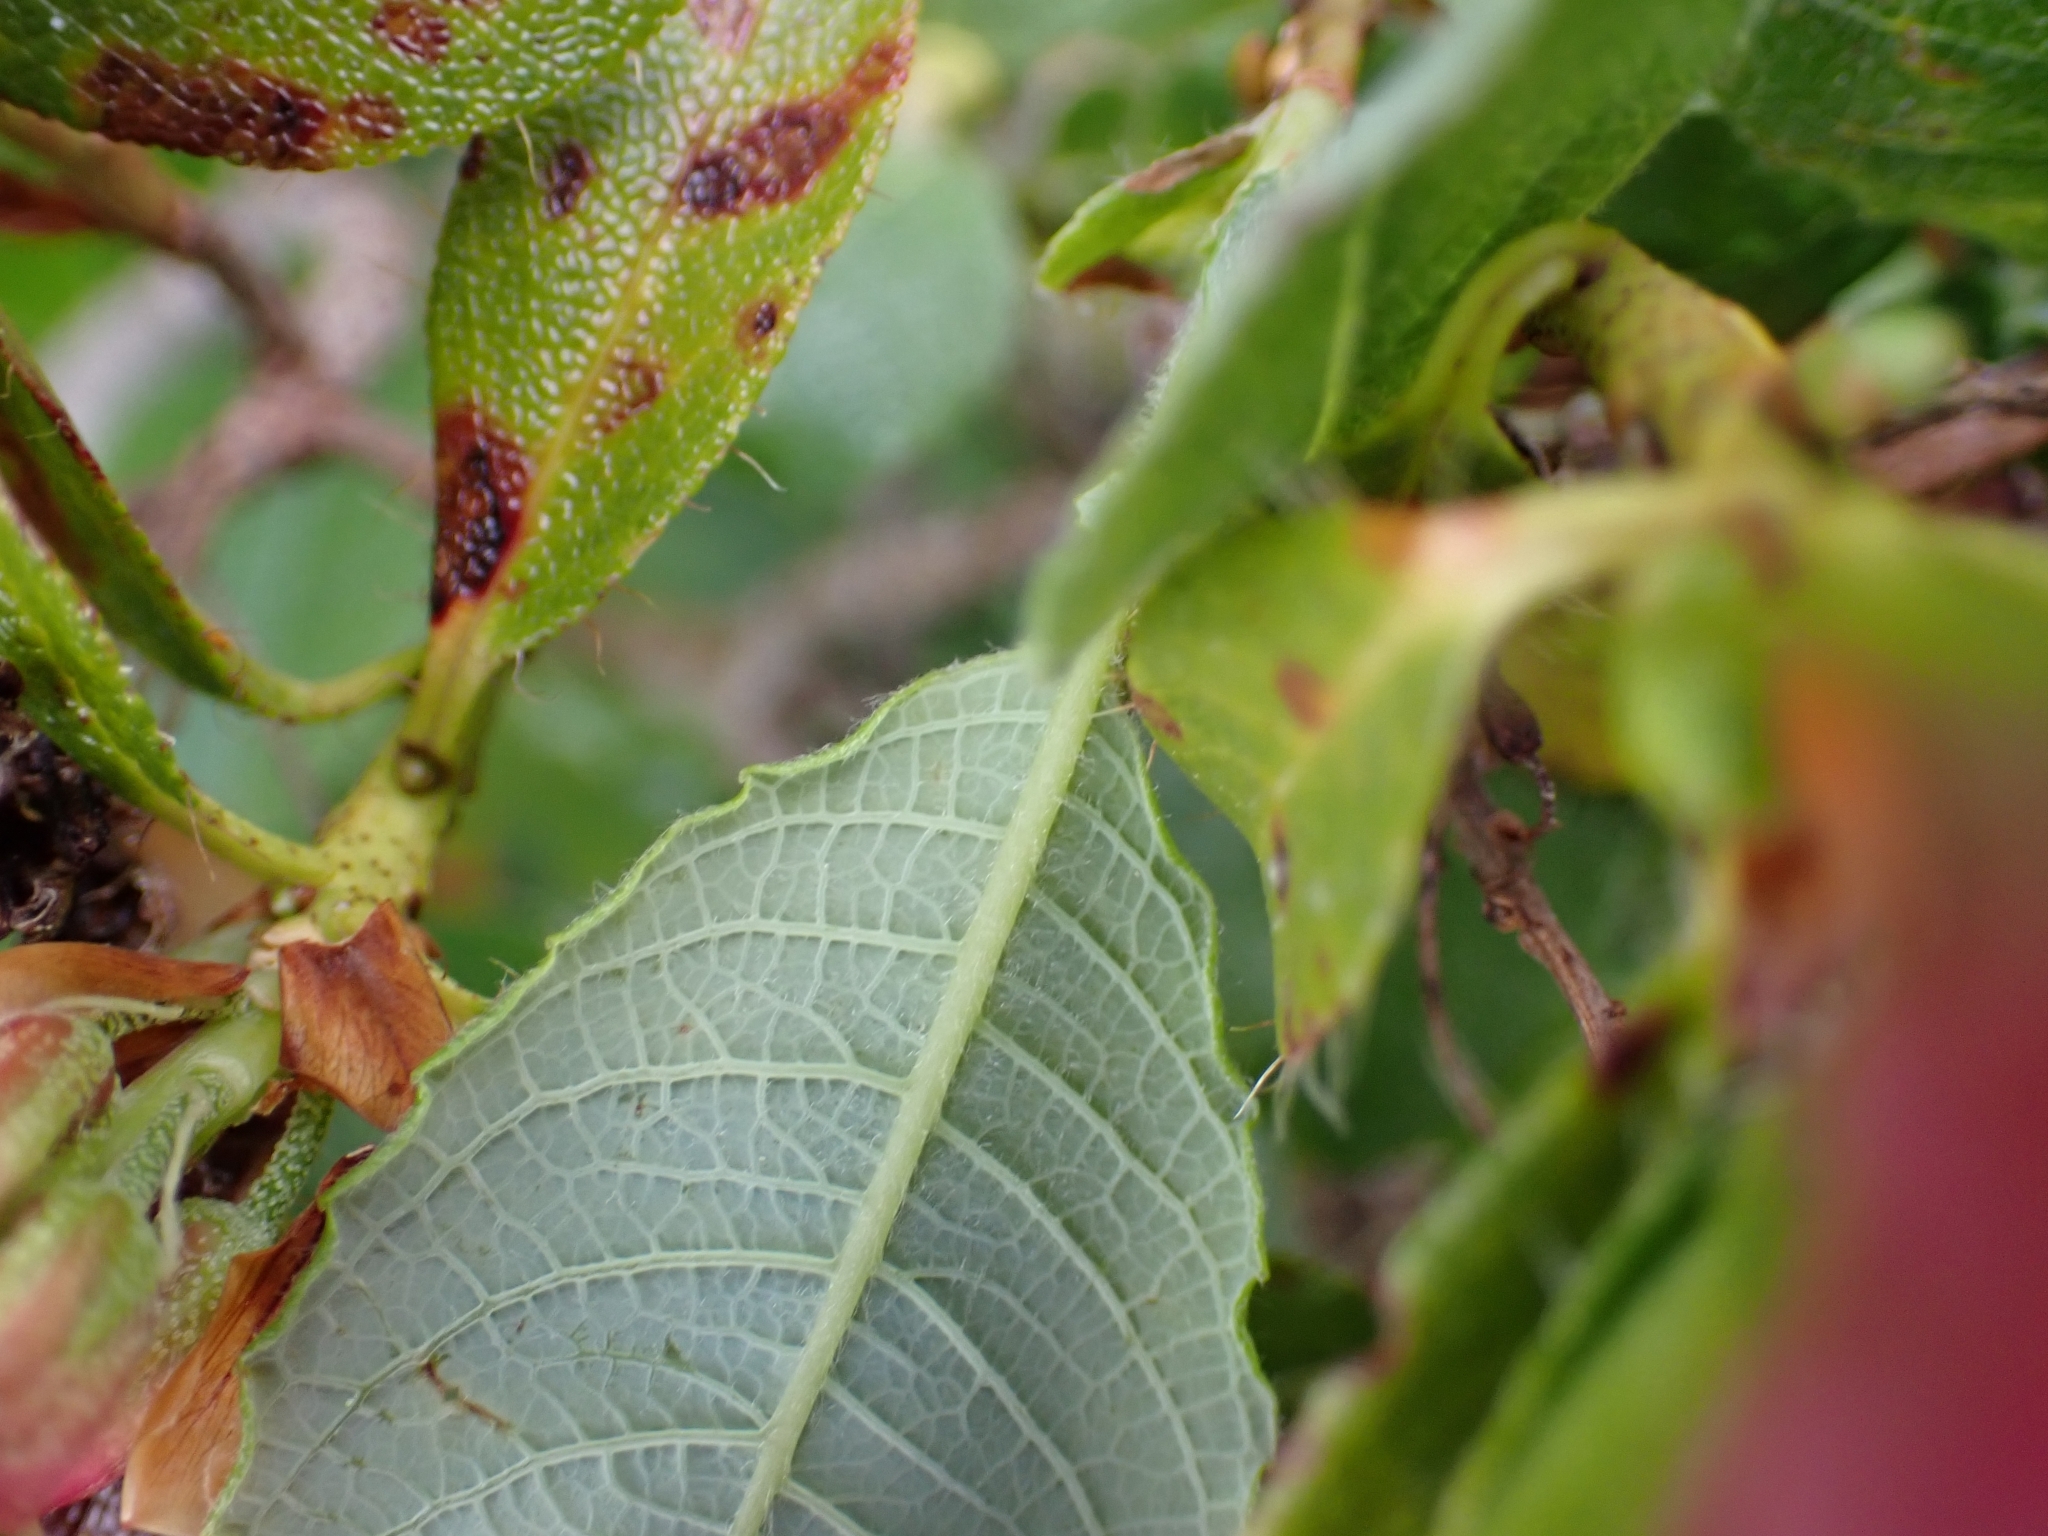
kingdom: Plantae
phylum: Tracheophyta
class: Magnoliopsida
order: Ericales
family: Ericaceae
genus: Rhododendron
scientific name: Rhododendron hirsutum
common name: Hairy alpenrose
